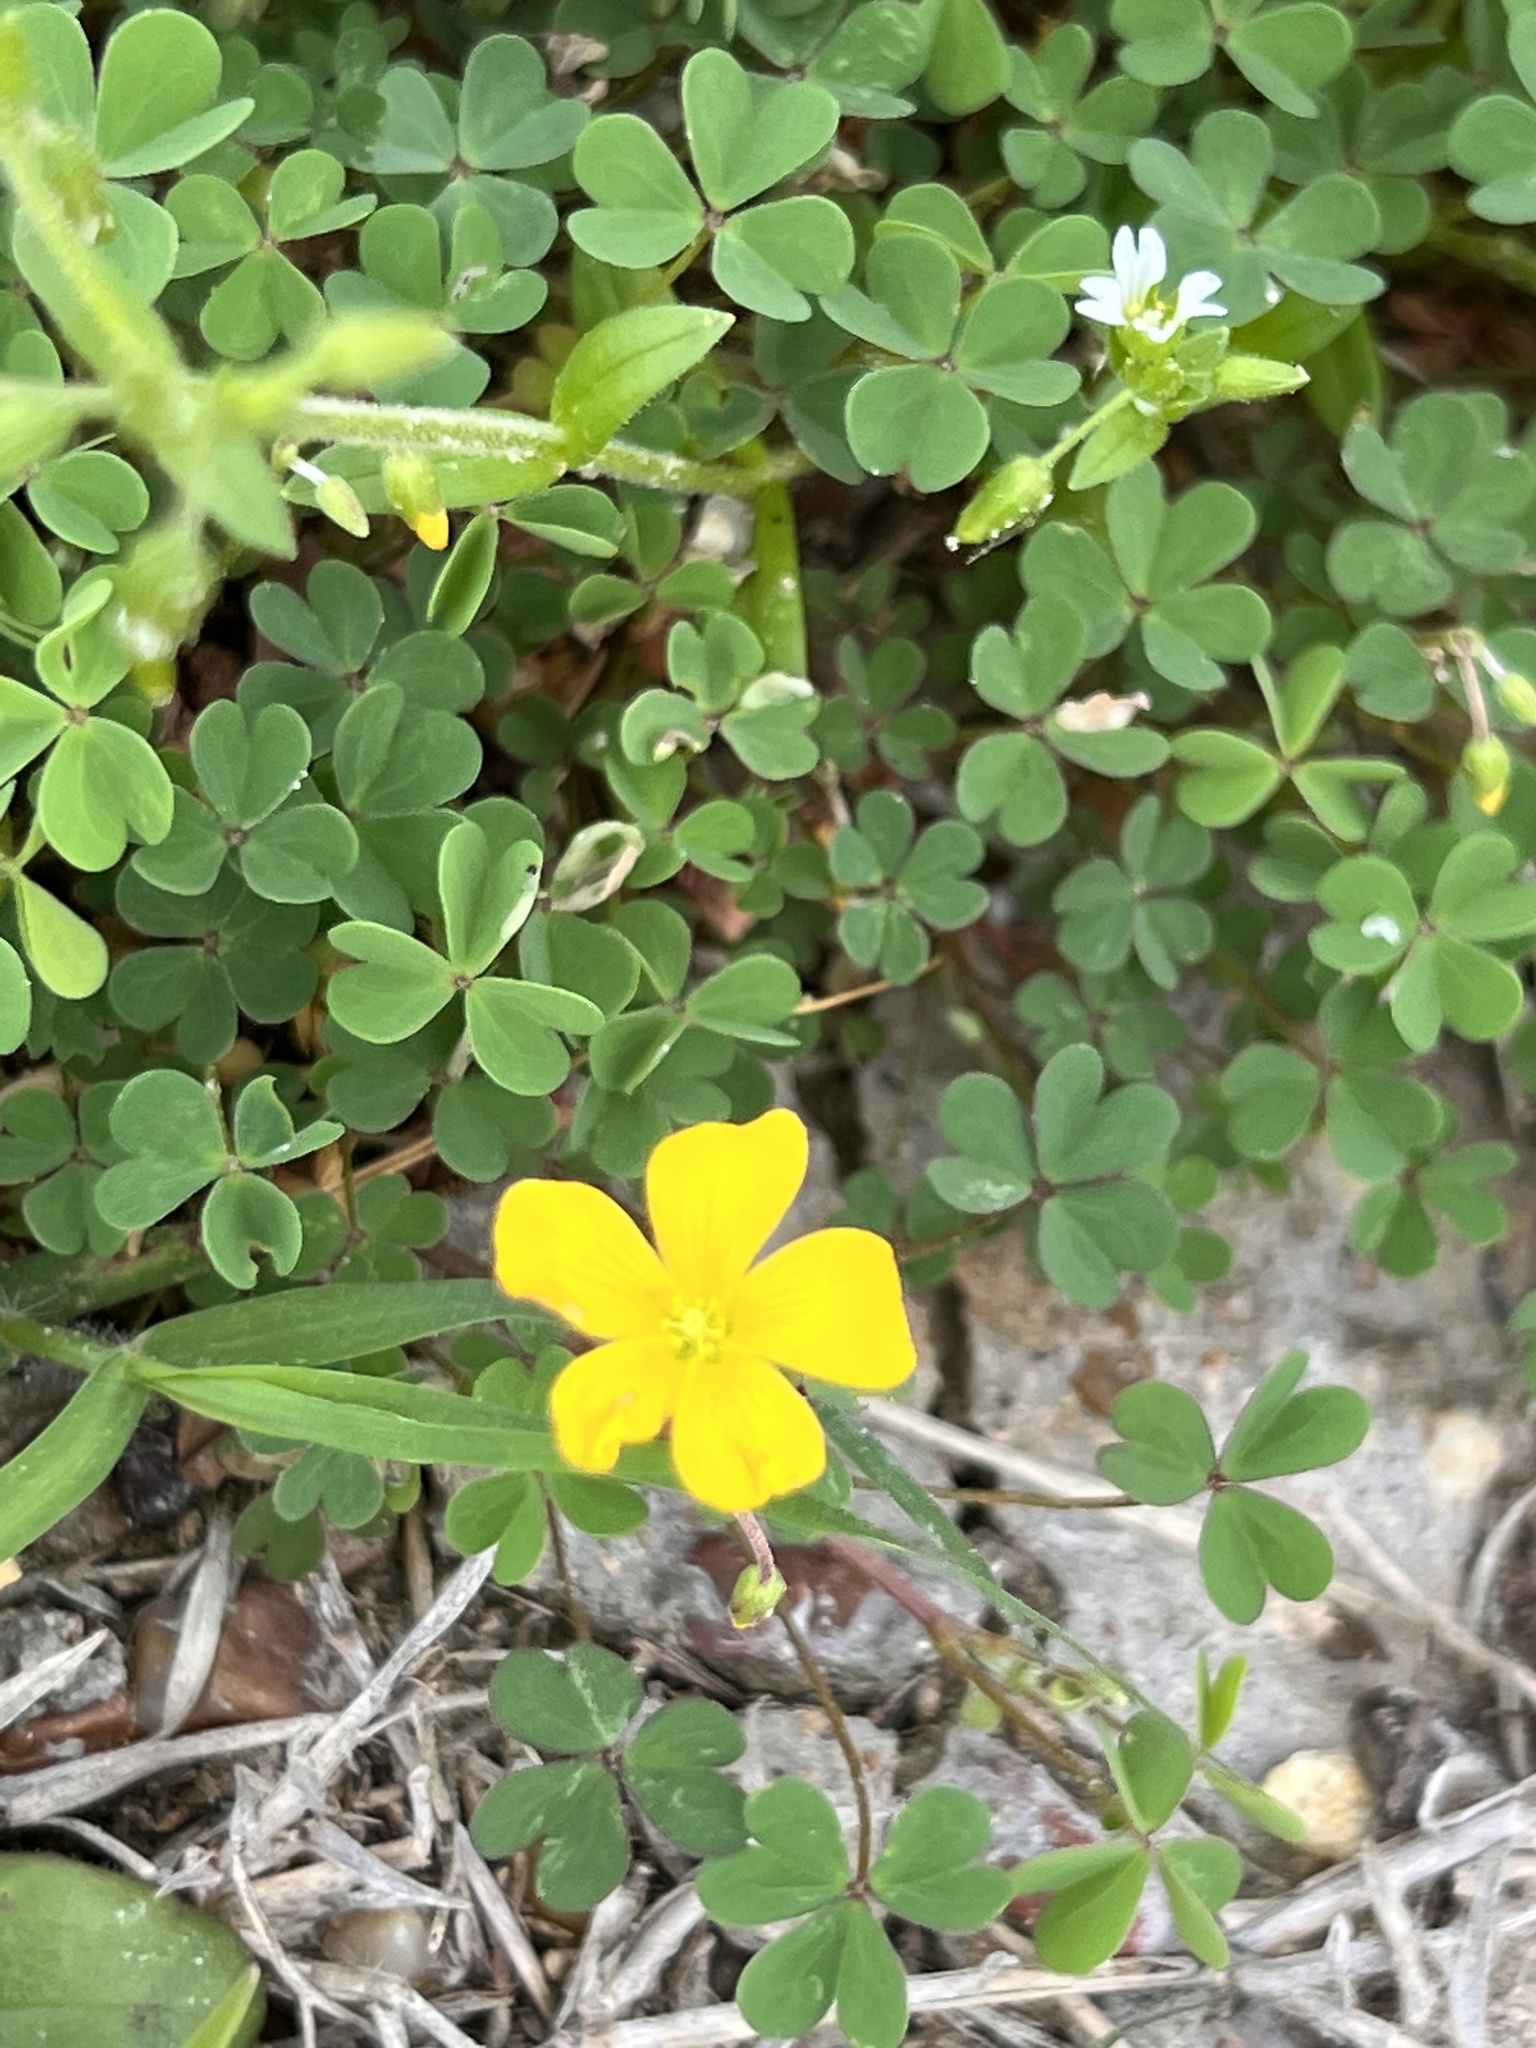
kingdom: Plantae
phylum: Tracheophyta
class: Magnoliopsida
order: Oxalidales
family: Oxalidaceae
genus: Oxalis
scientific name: Oxalis dillenii
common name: Sussex yellow-sorrel
